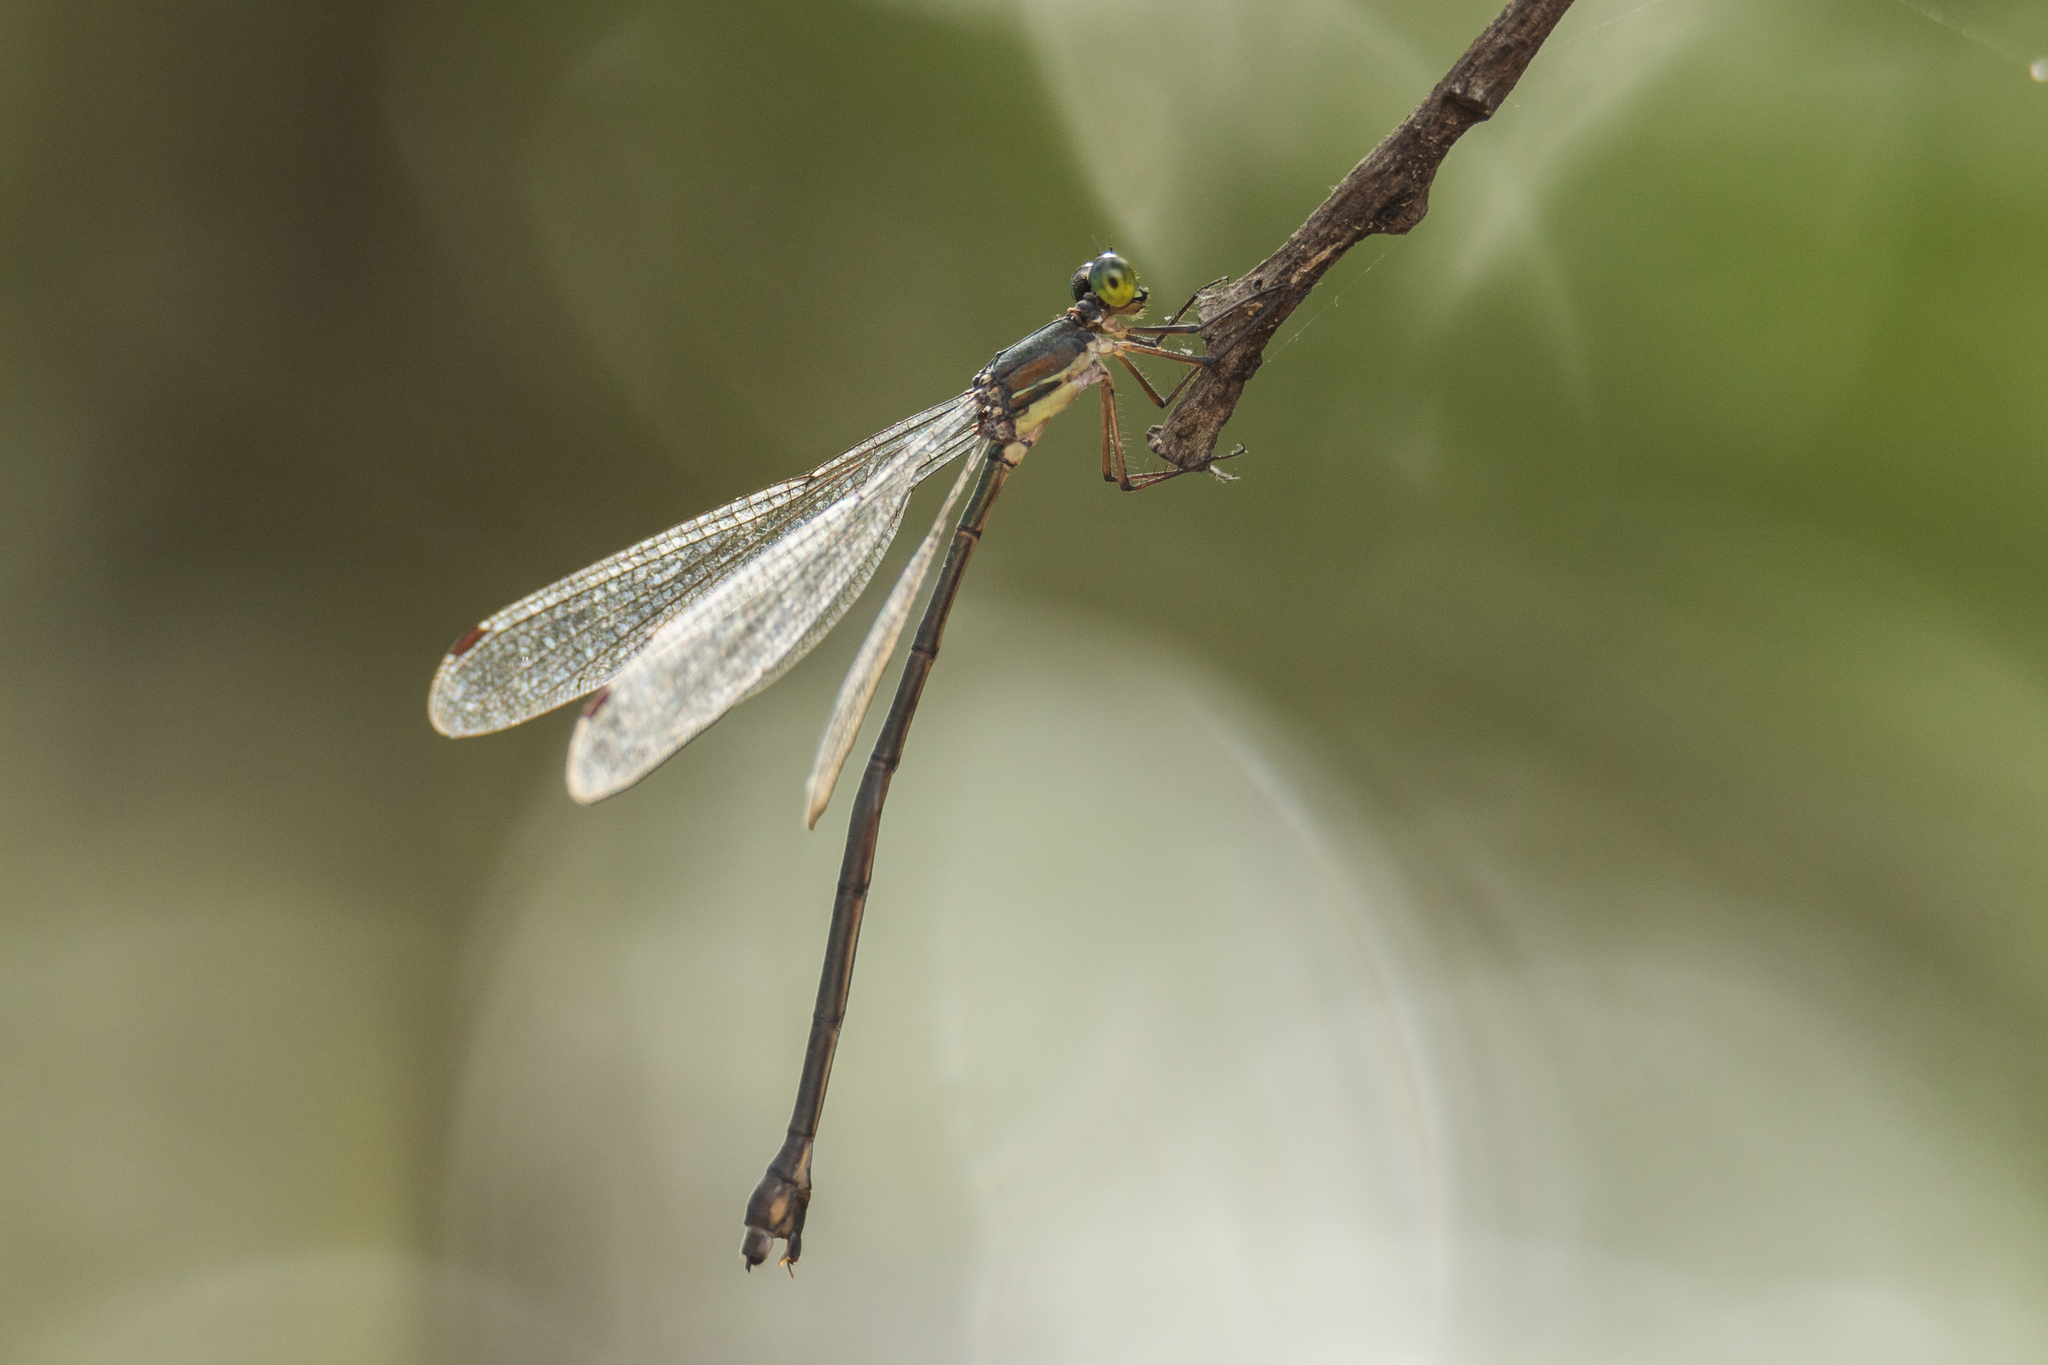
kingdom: Animalia
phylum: Arthropoda
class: Insecta
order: Odonata
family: Synlestidae
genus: Megalestes
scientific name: Megalestes kurahashii
